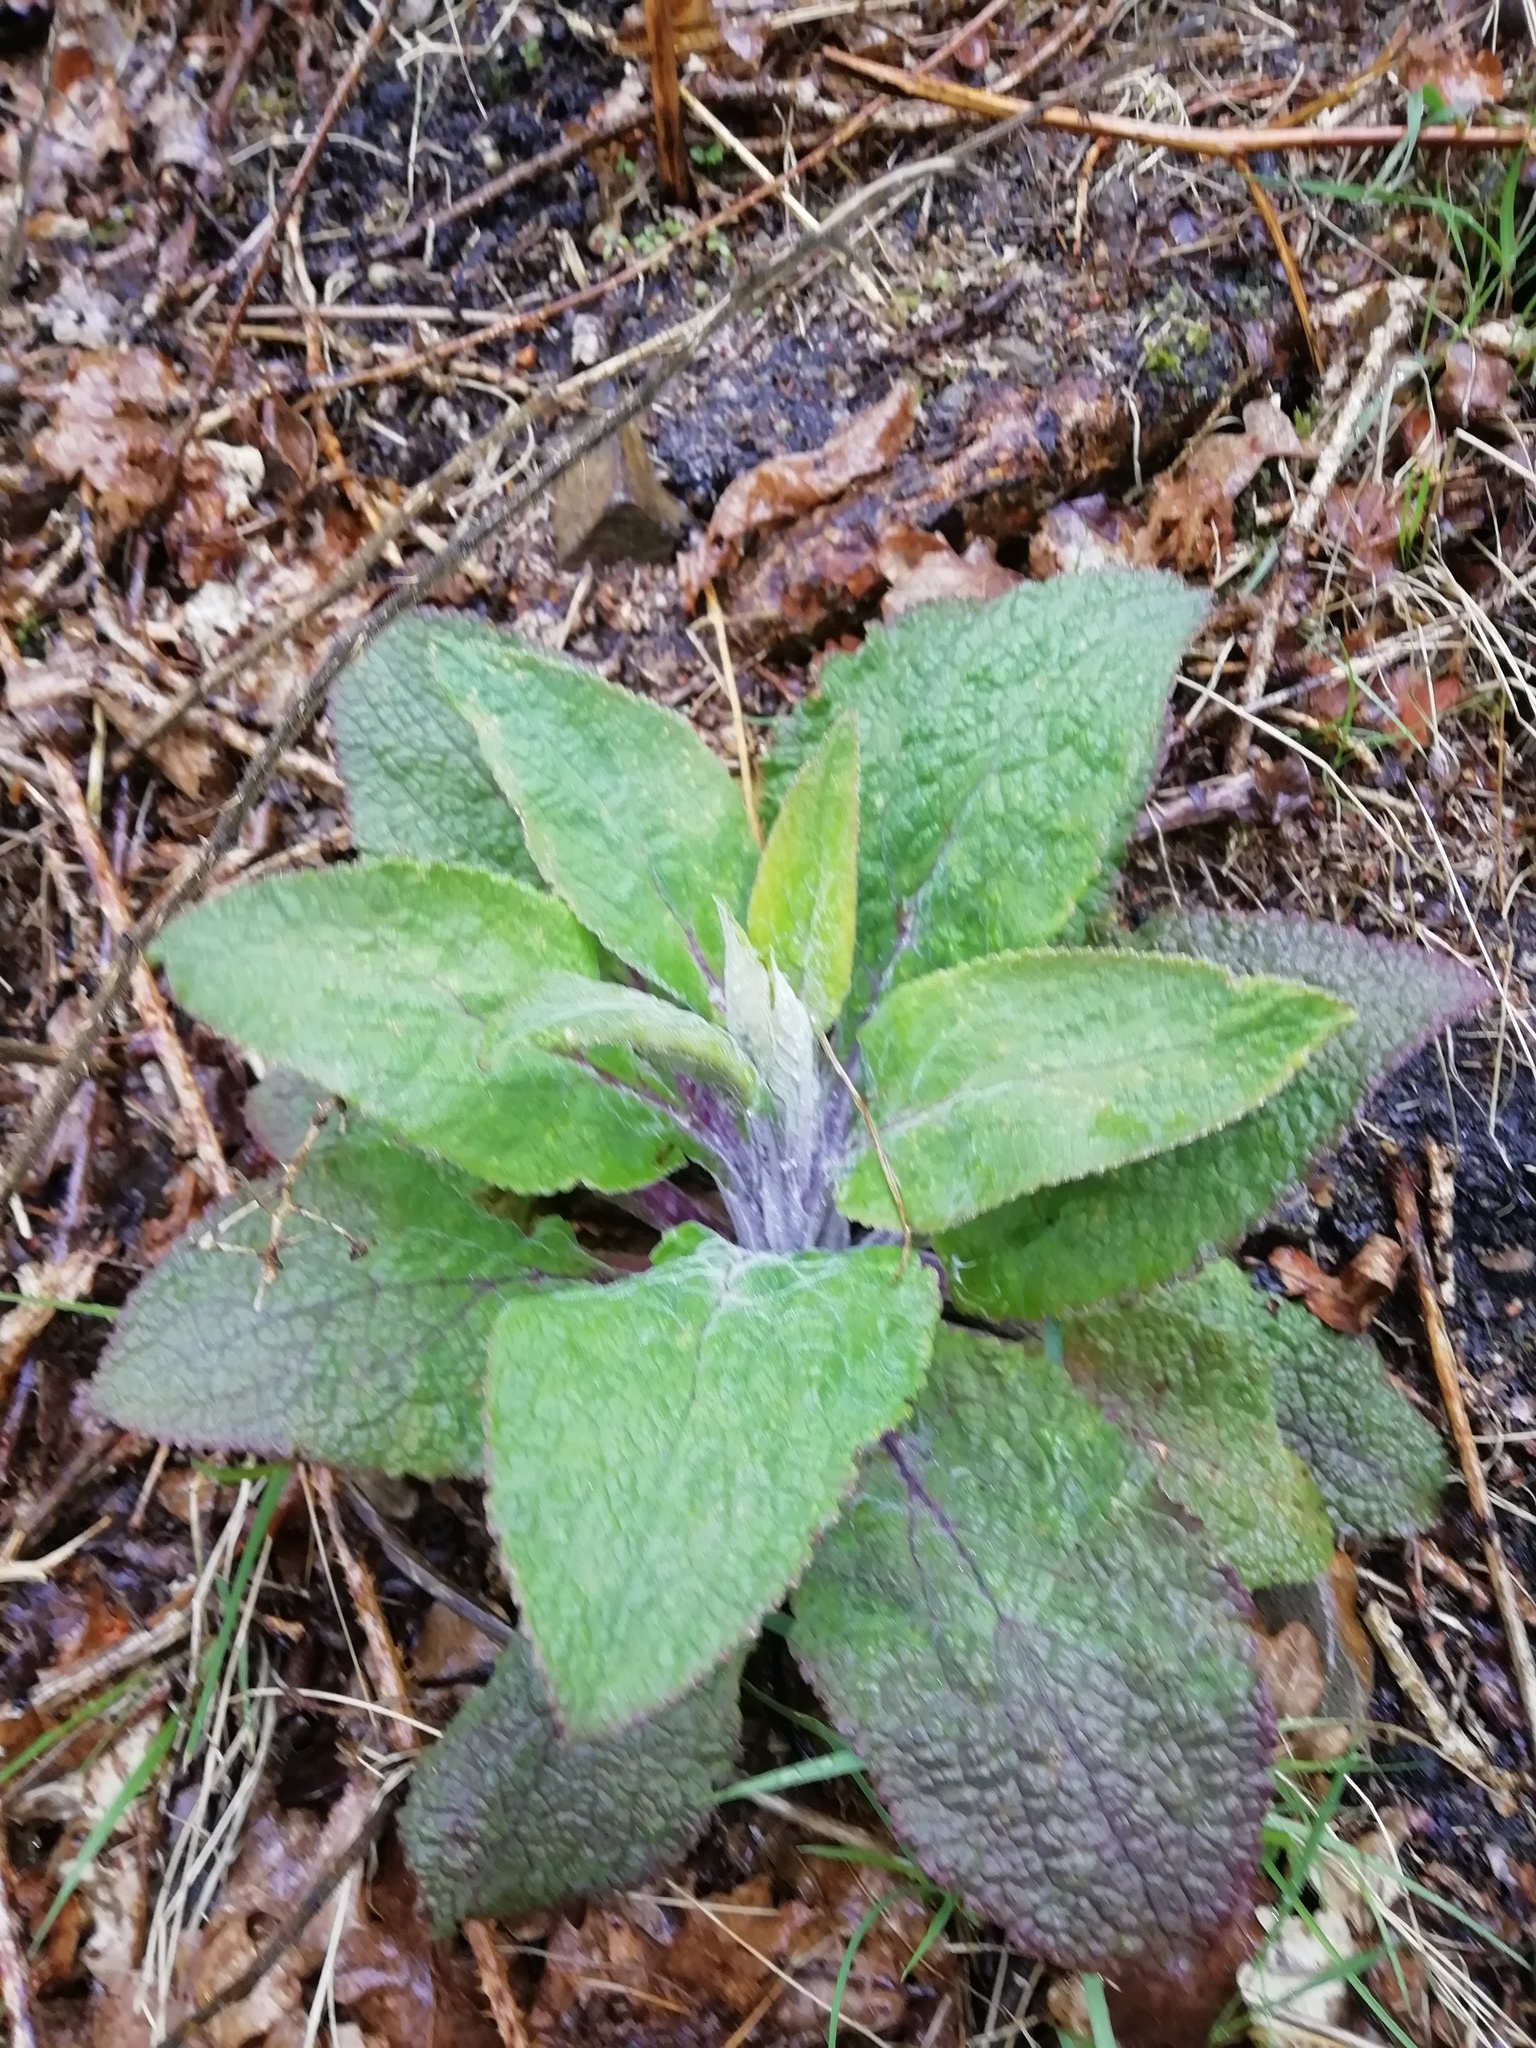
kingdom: Plantae
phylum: Tracheophyta
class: Magnoliopsida
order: Lamiales
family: Plantaginaceae
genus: Digitalis
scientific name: Digitalis purpurea
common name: Foxglove
